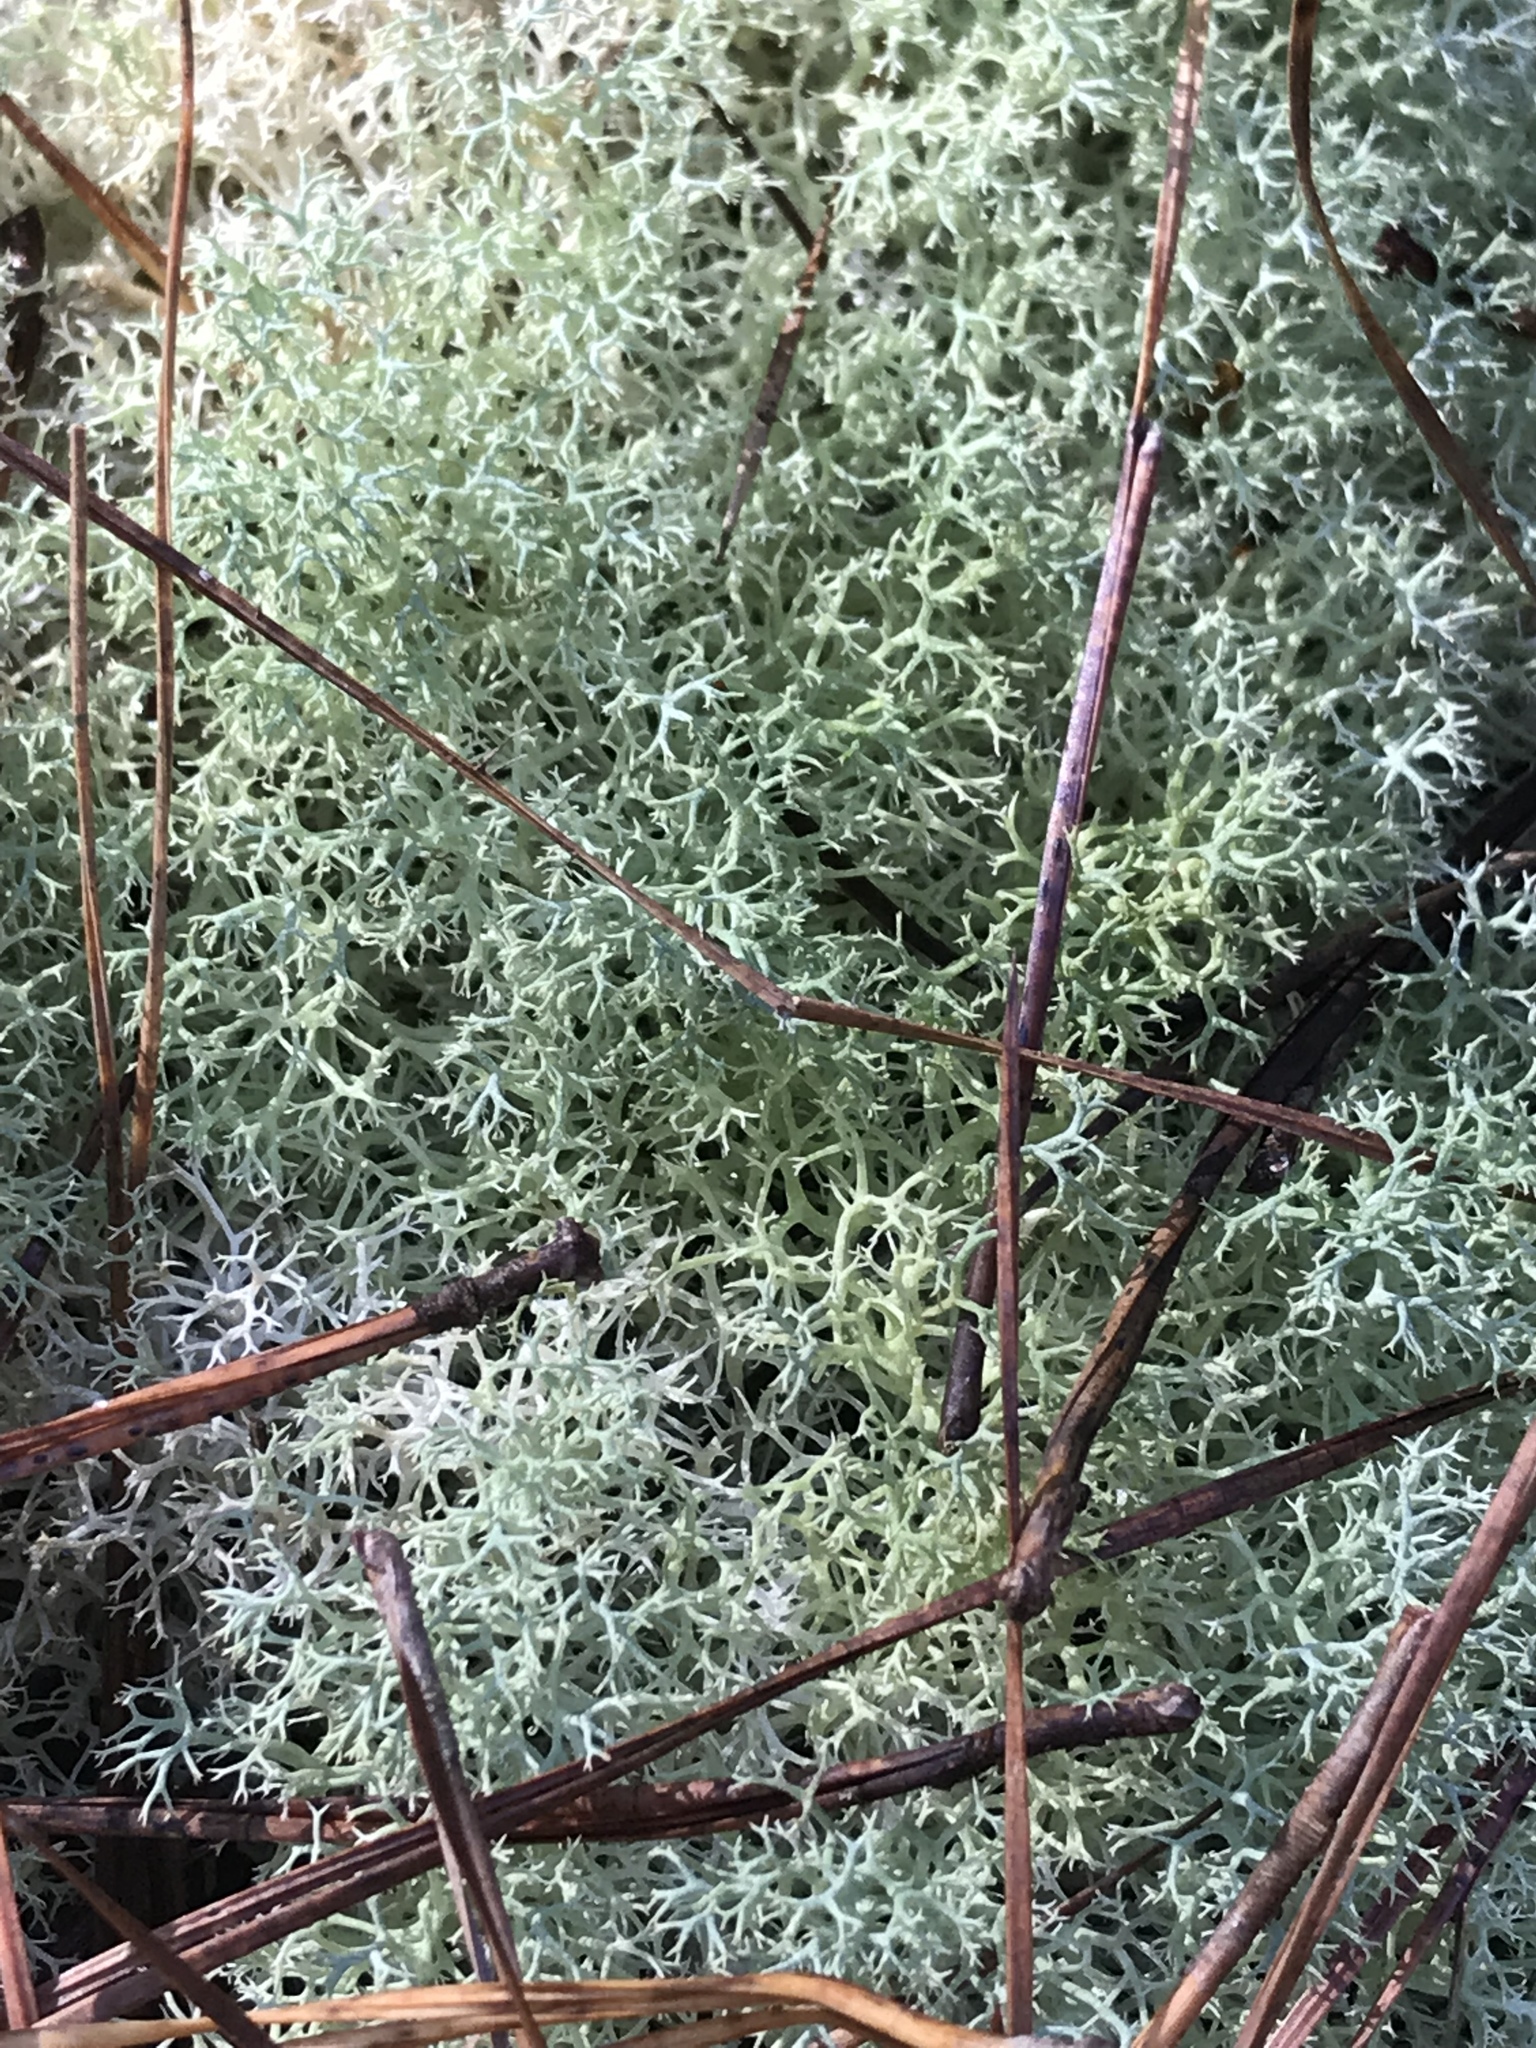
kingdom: Fungi
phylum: Ascomycota
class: Lecanoromycetes
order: Lecanorales
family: Cladoniaceae
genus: Cladonia
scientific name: Cladonia subtenuis
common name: Dixie reindeer lichen
